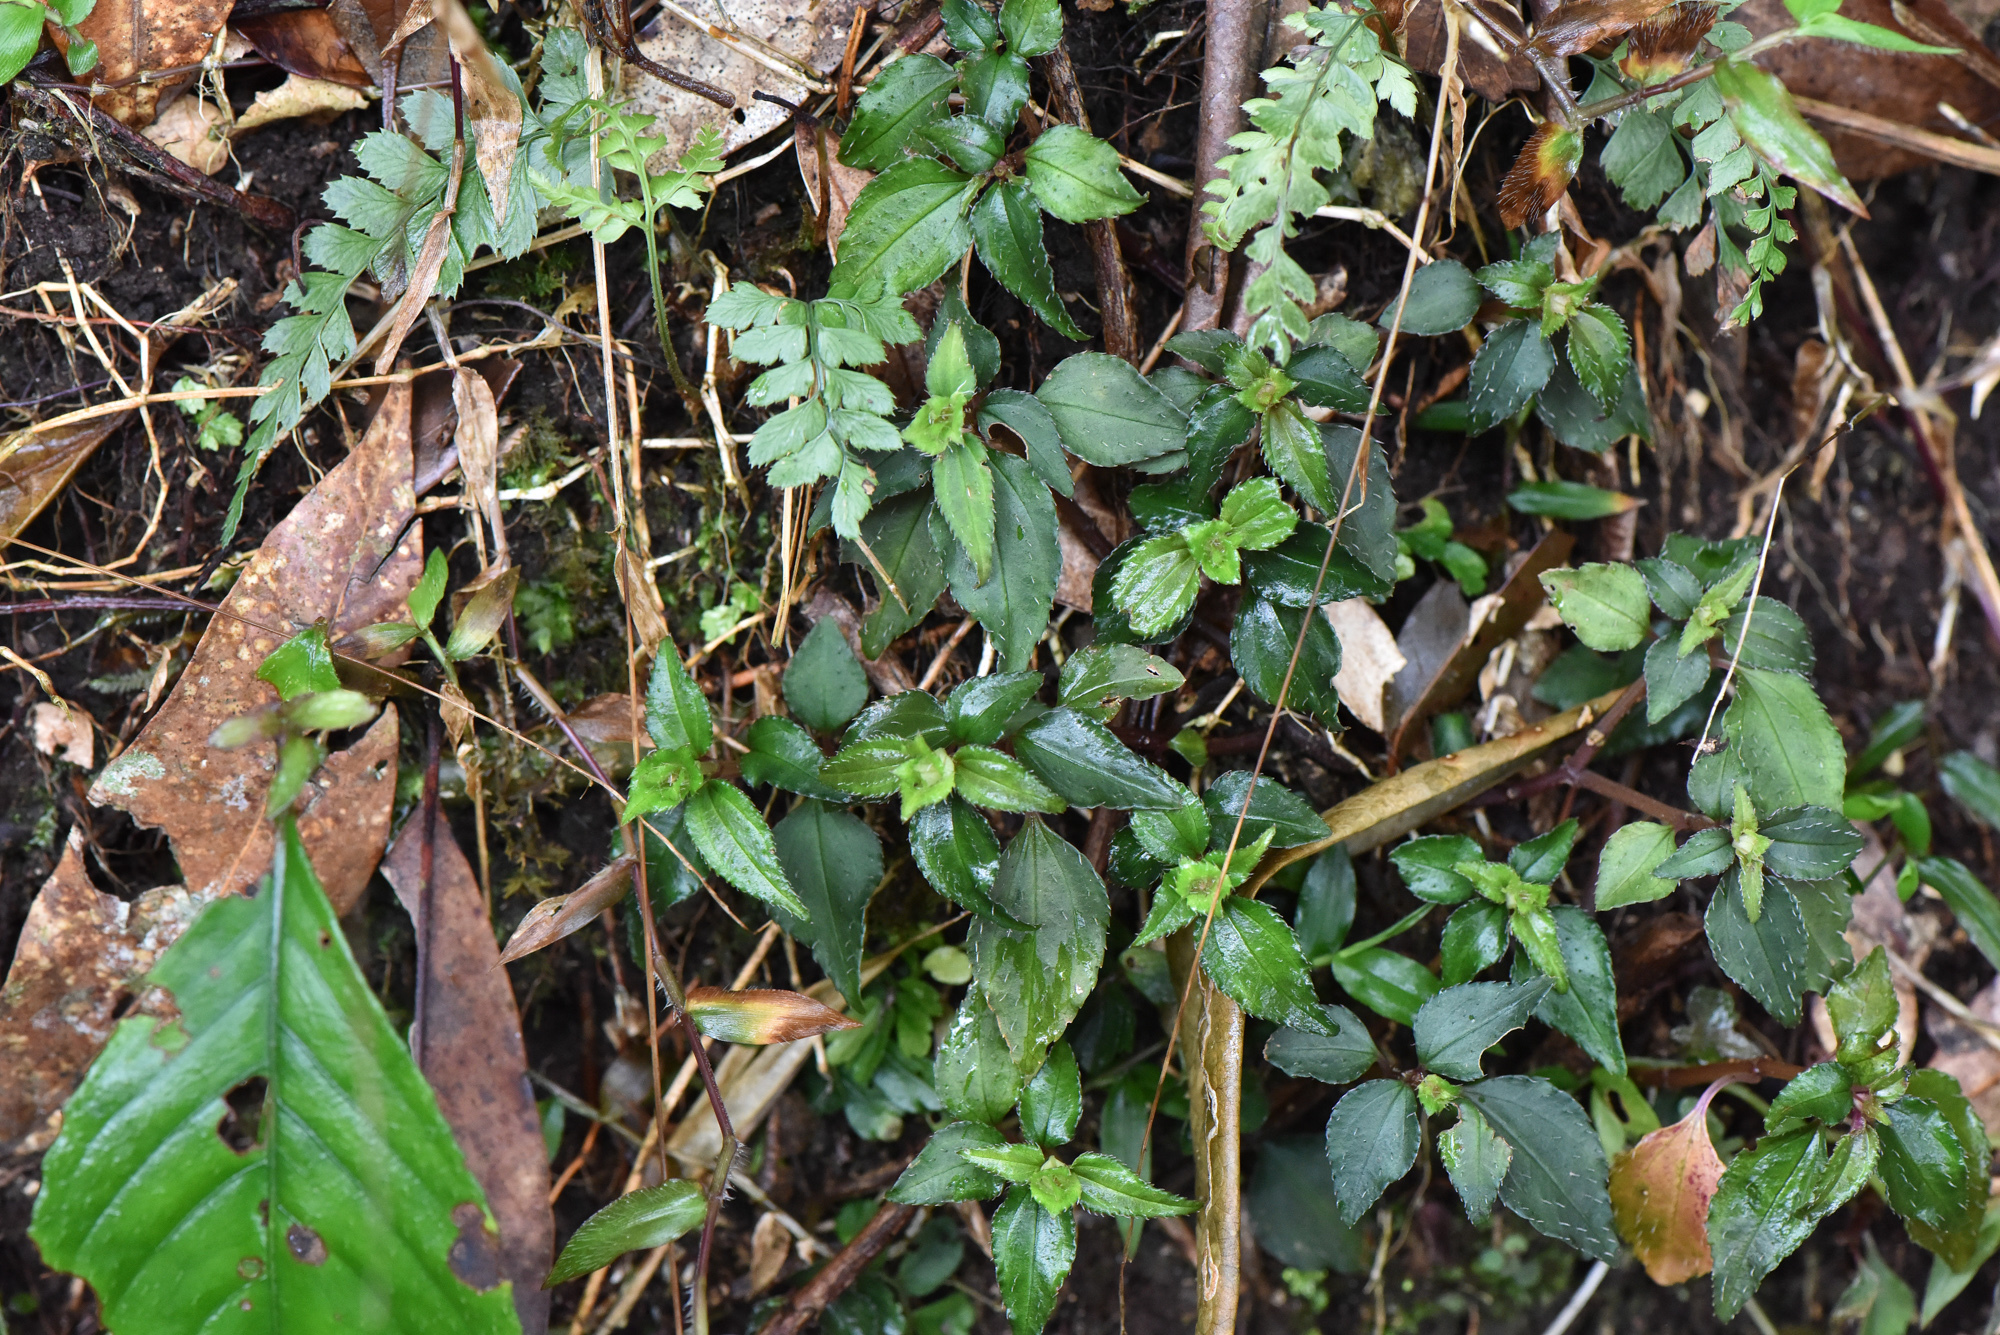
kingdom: Plantae
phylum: Tracheophyta
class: Magnoliopsida
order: Myrtales
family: Melastomataceae
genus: Sarcopyramis
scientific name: Sarcopyramis bodinieri
